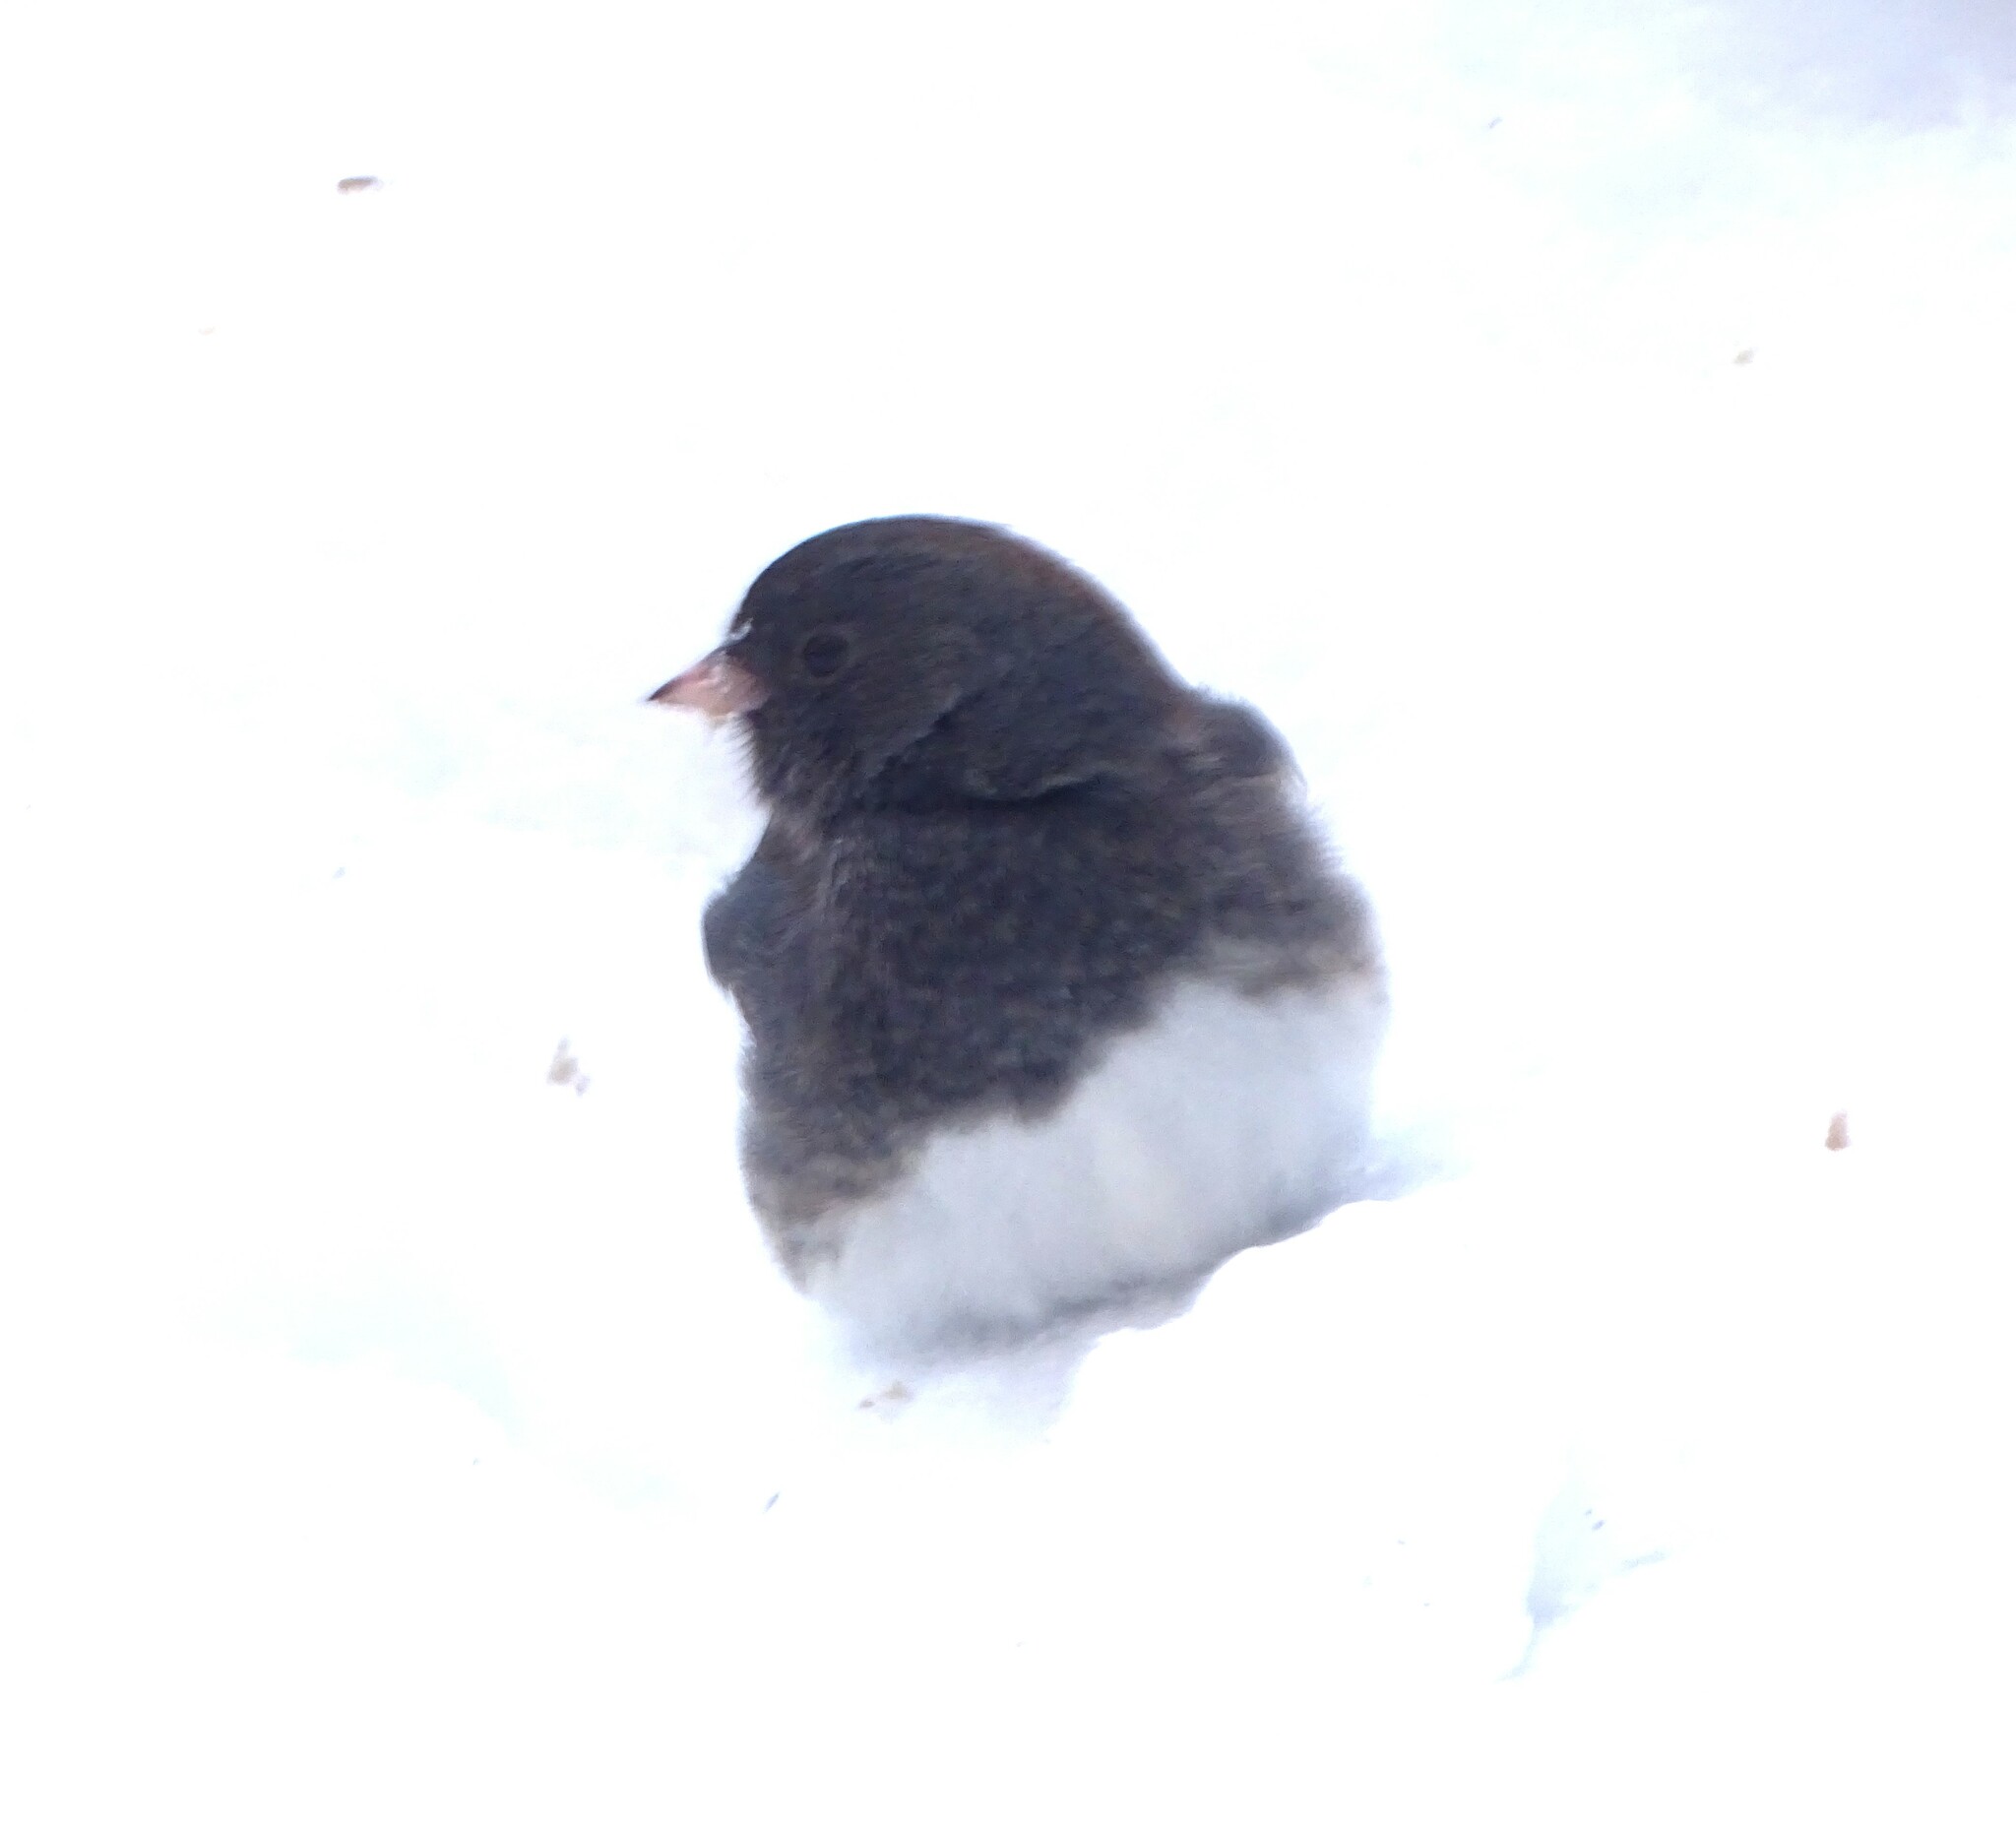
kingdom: Animalia
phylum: Chordata
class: Aves
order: Passeriformes
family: Passerellidae
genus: Junco
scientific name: Junco hyemalis
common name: Dark-eyed junco
